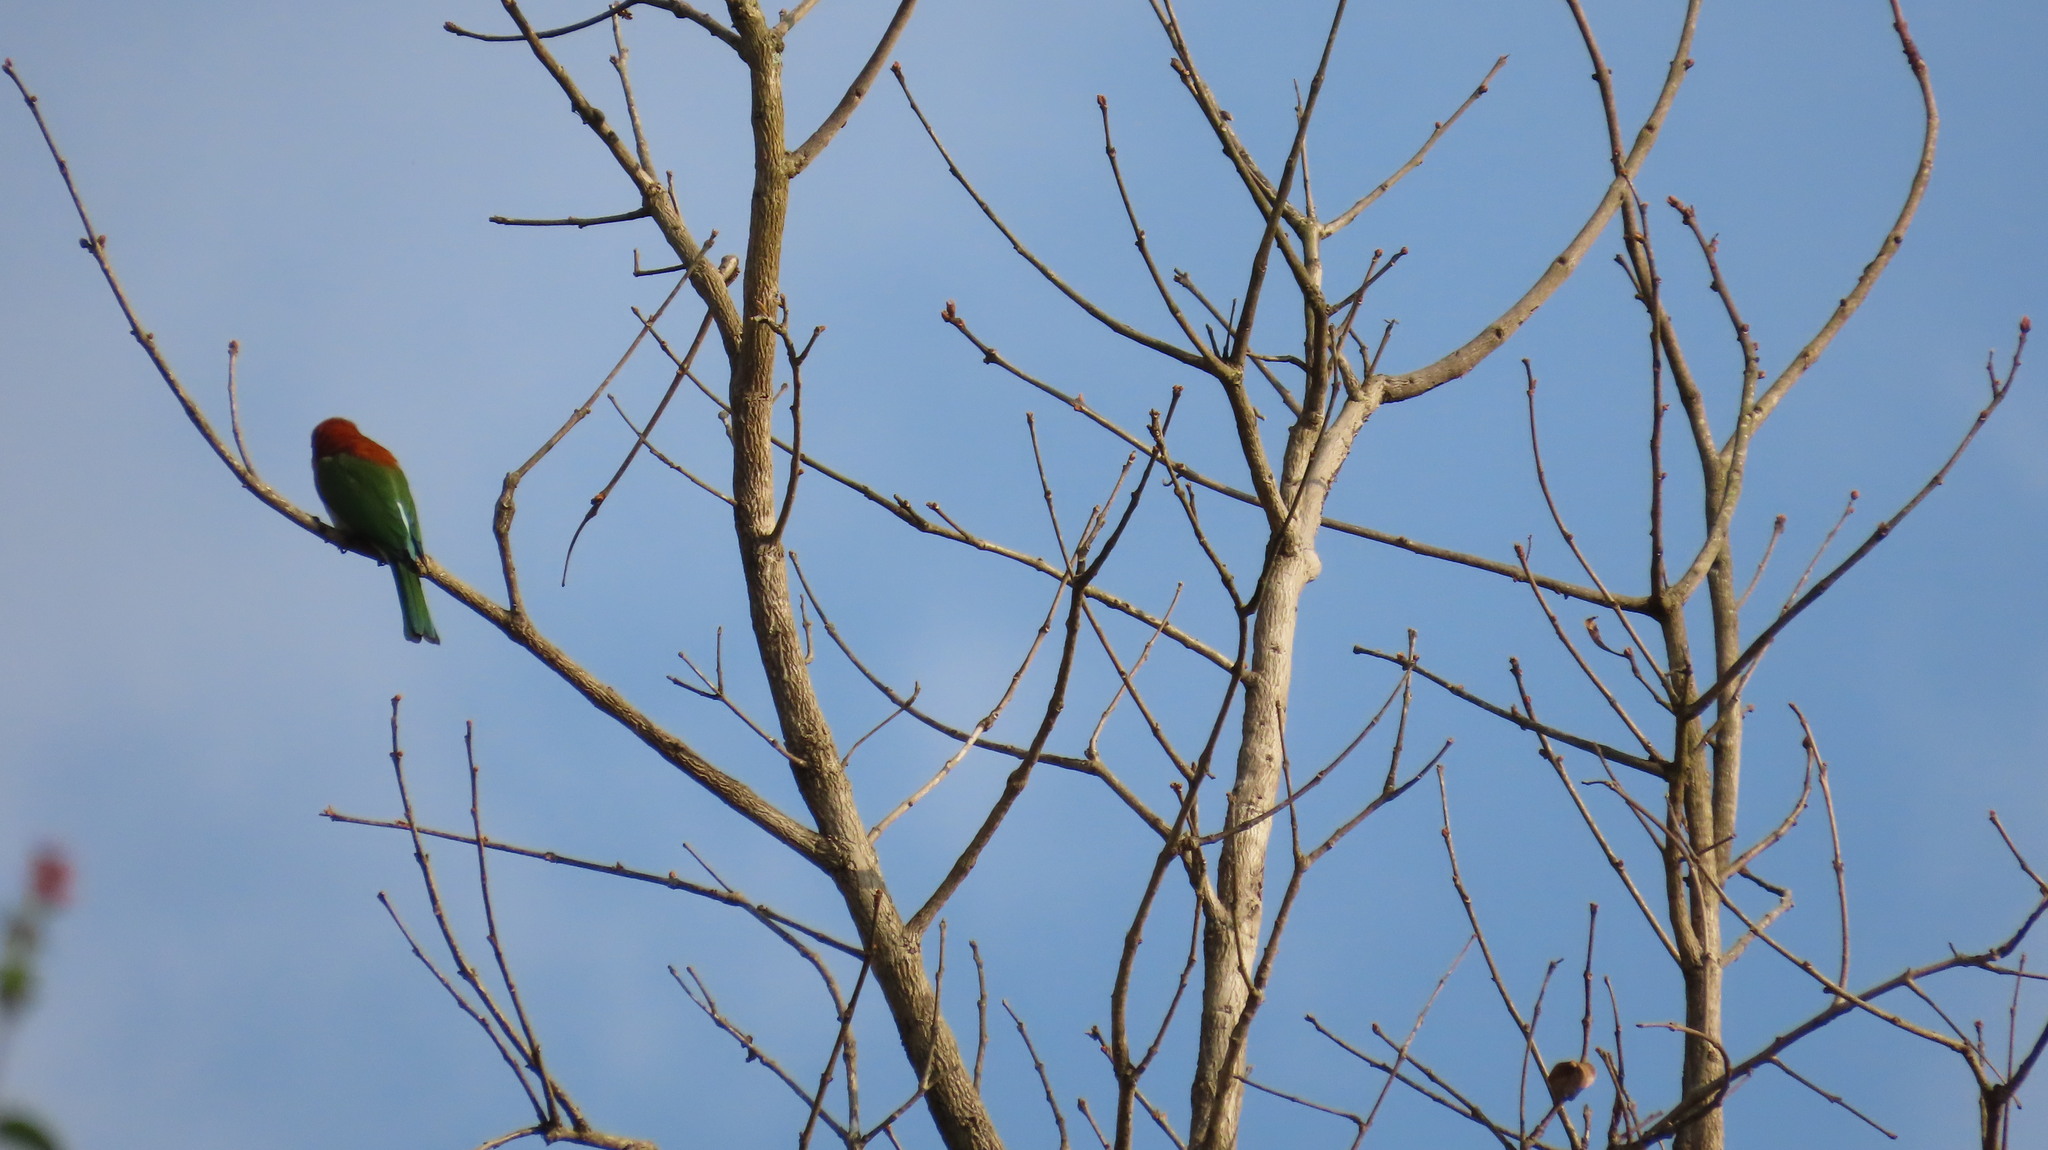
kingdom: Animalia
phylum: Chordata
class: Aves
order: Coraciiformes
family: Meropidae
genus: Merops
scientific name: Merops leschenaulti
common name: Chestnut-headed bee-eater
